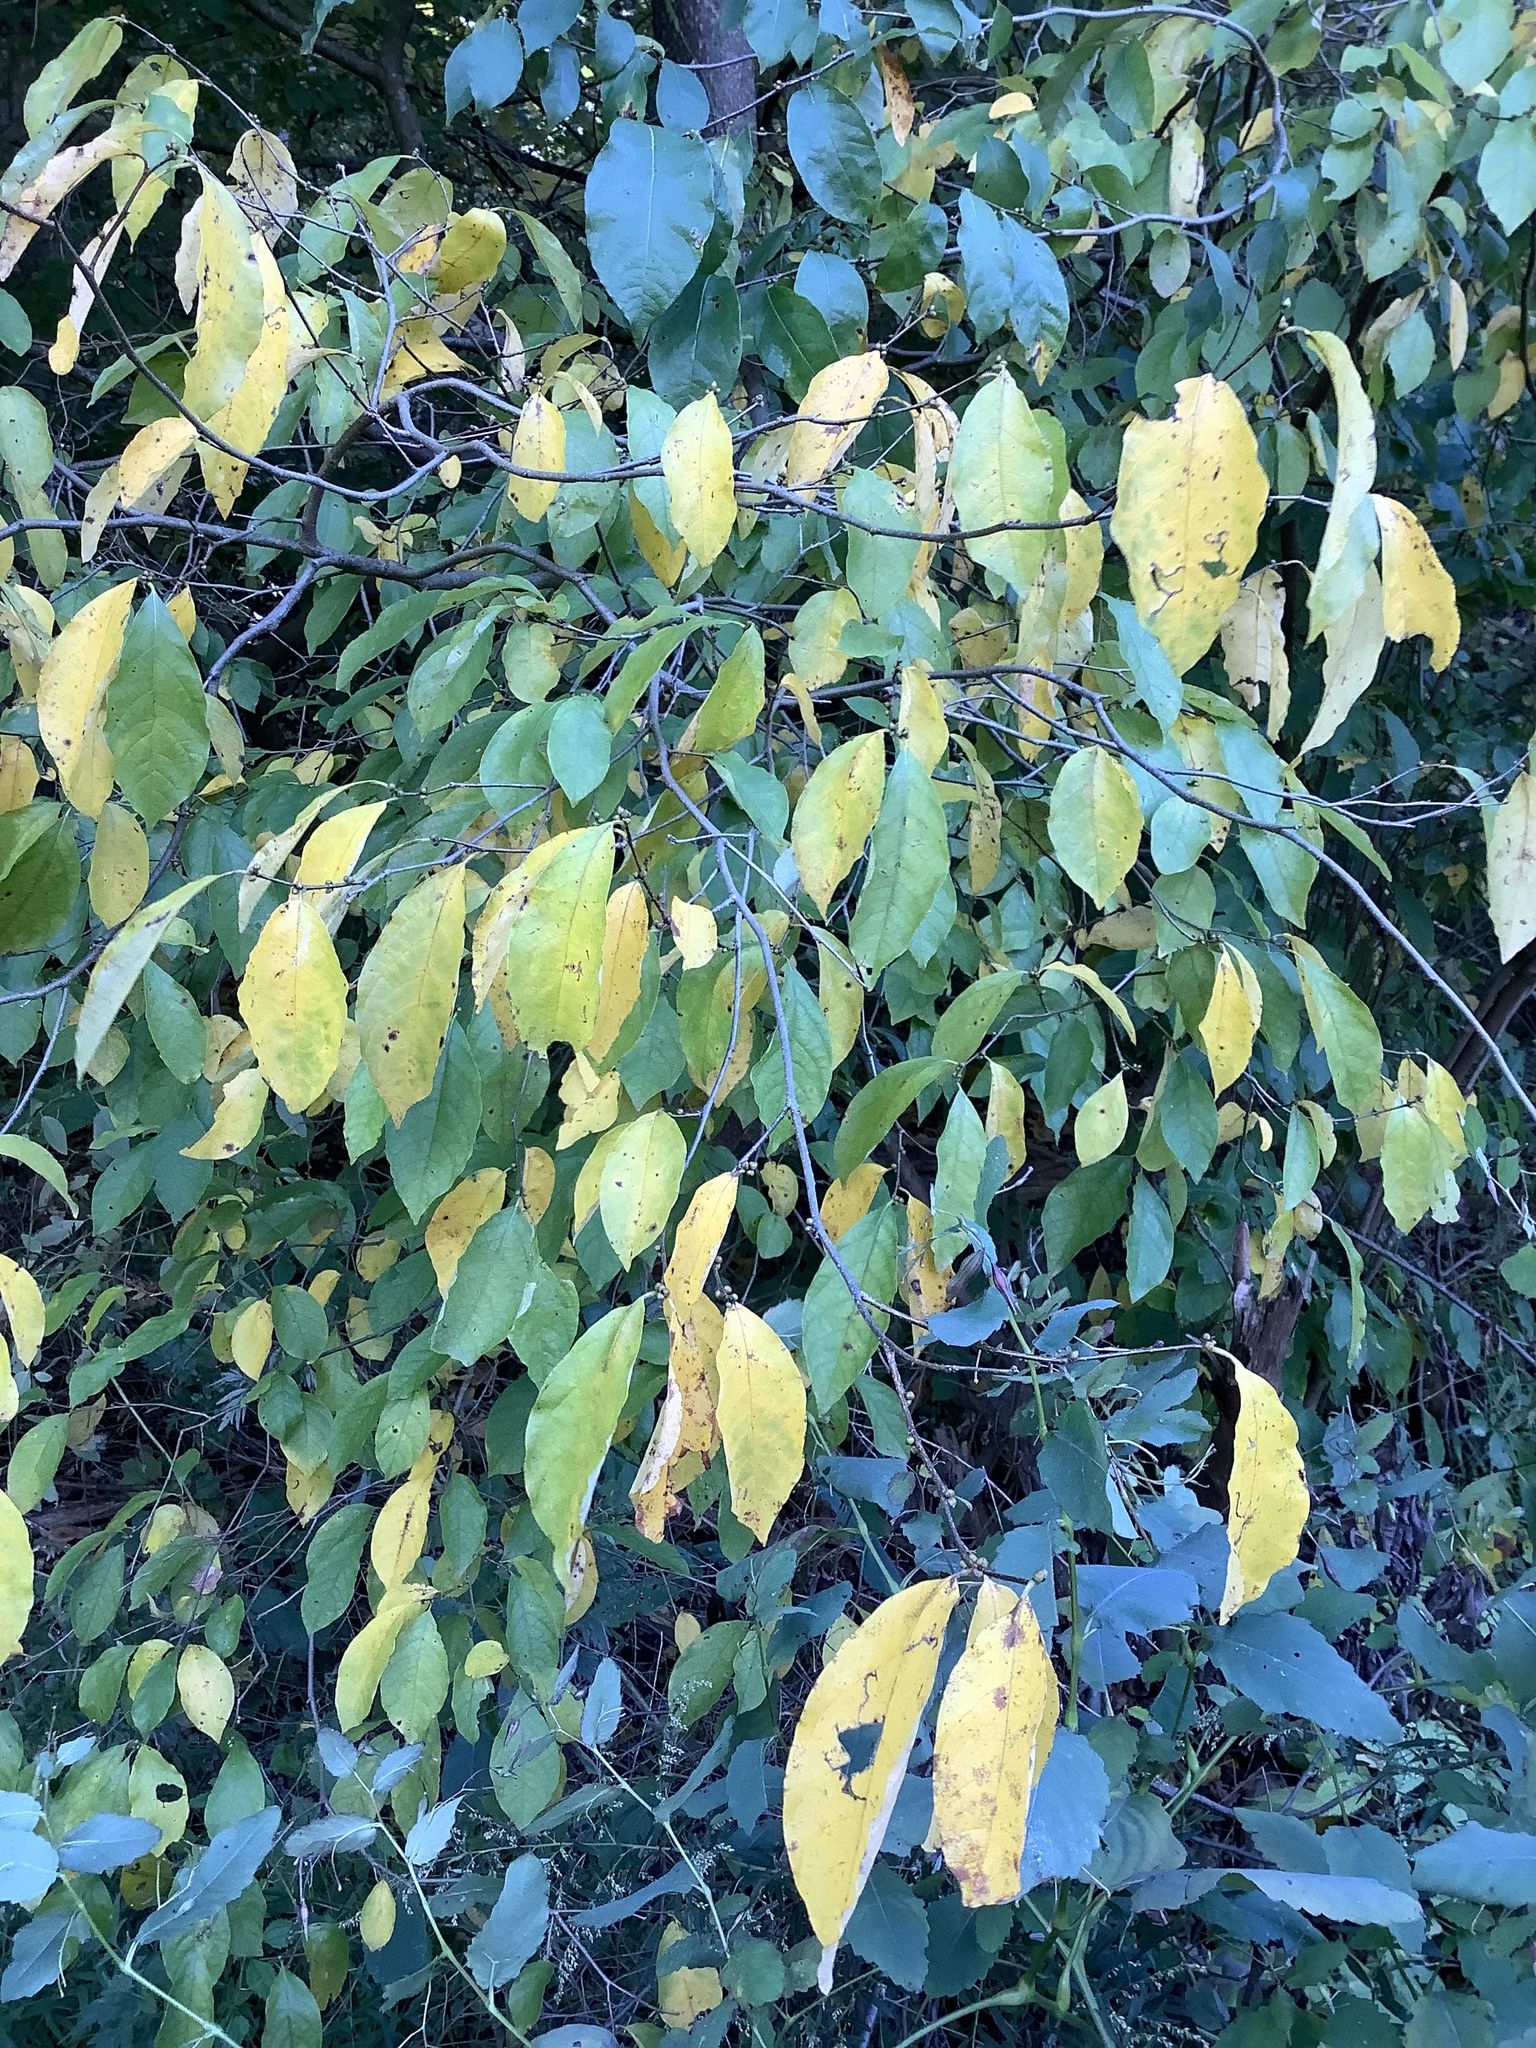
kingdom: Plantae
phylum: Tracheophyta
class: Magnoliopsida
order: Laurales
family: Lauraceae
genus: Lindera
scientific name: Lindera benzoin
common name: Spicebush
